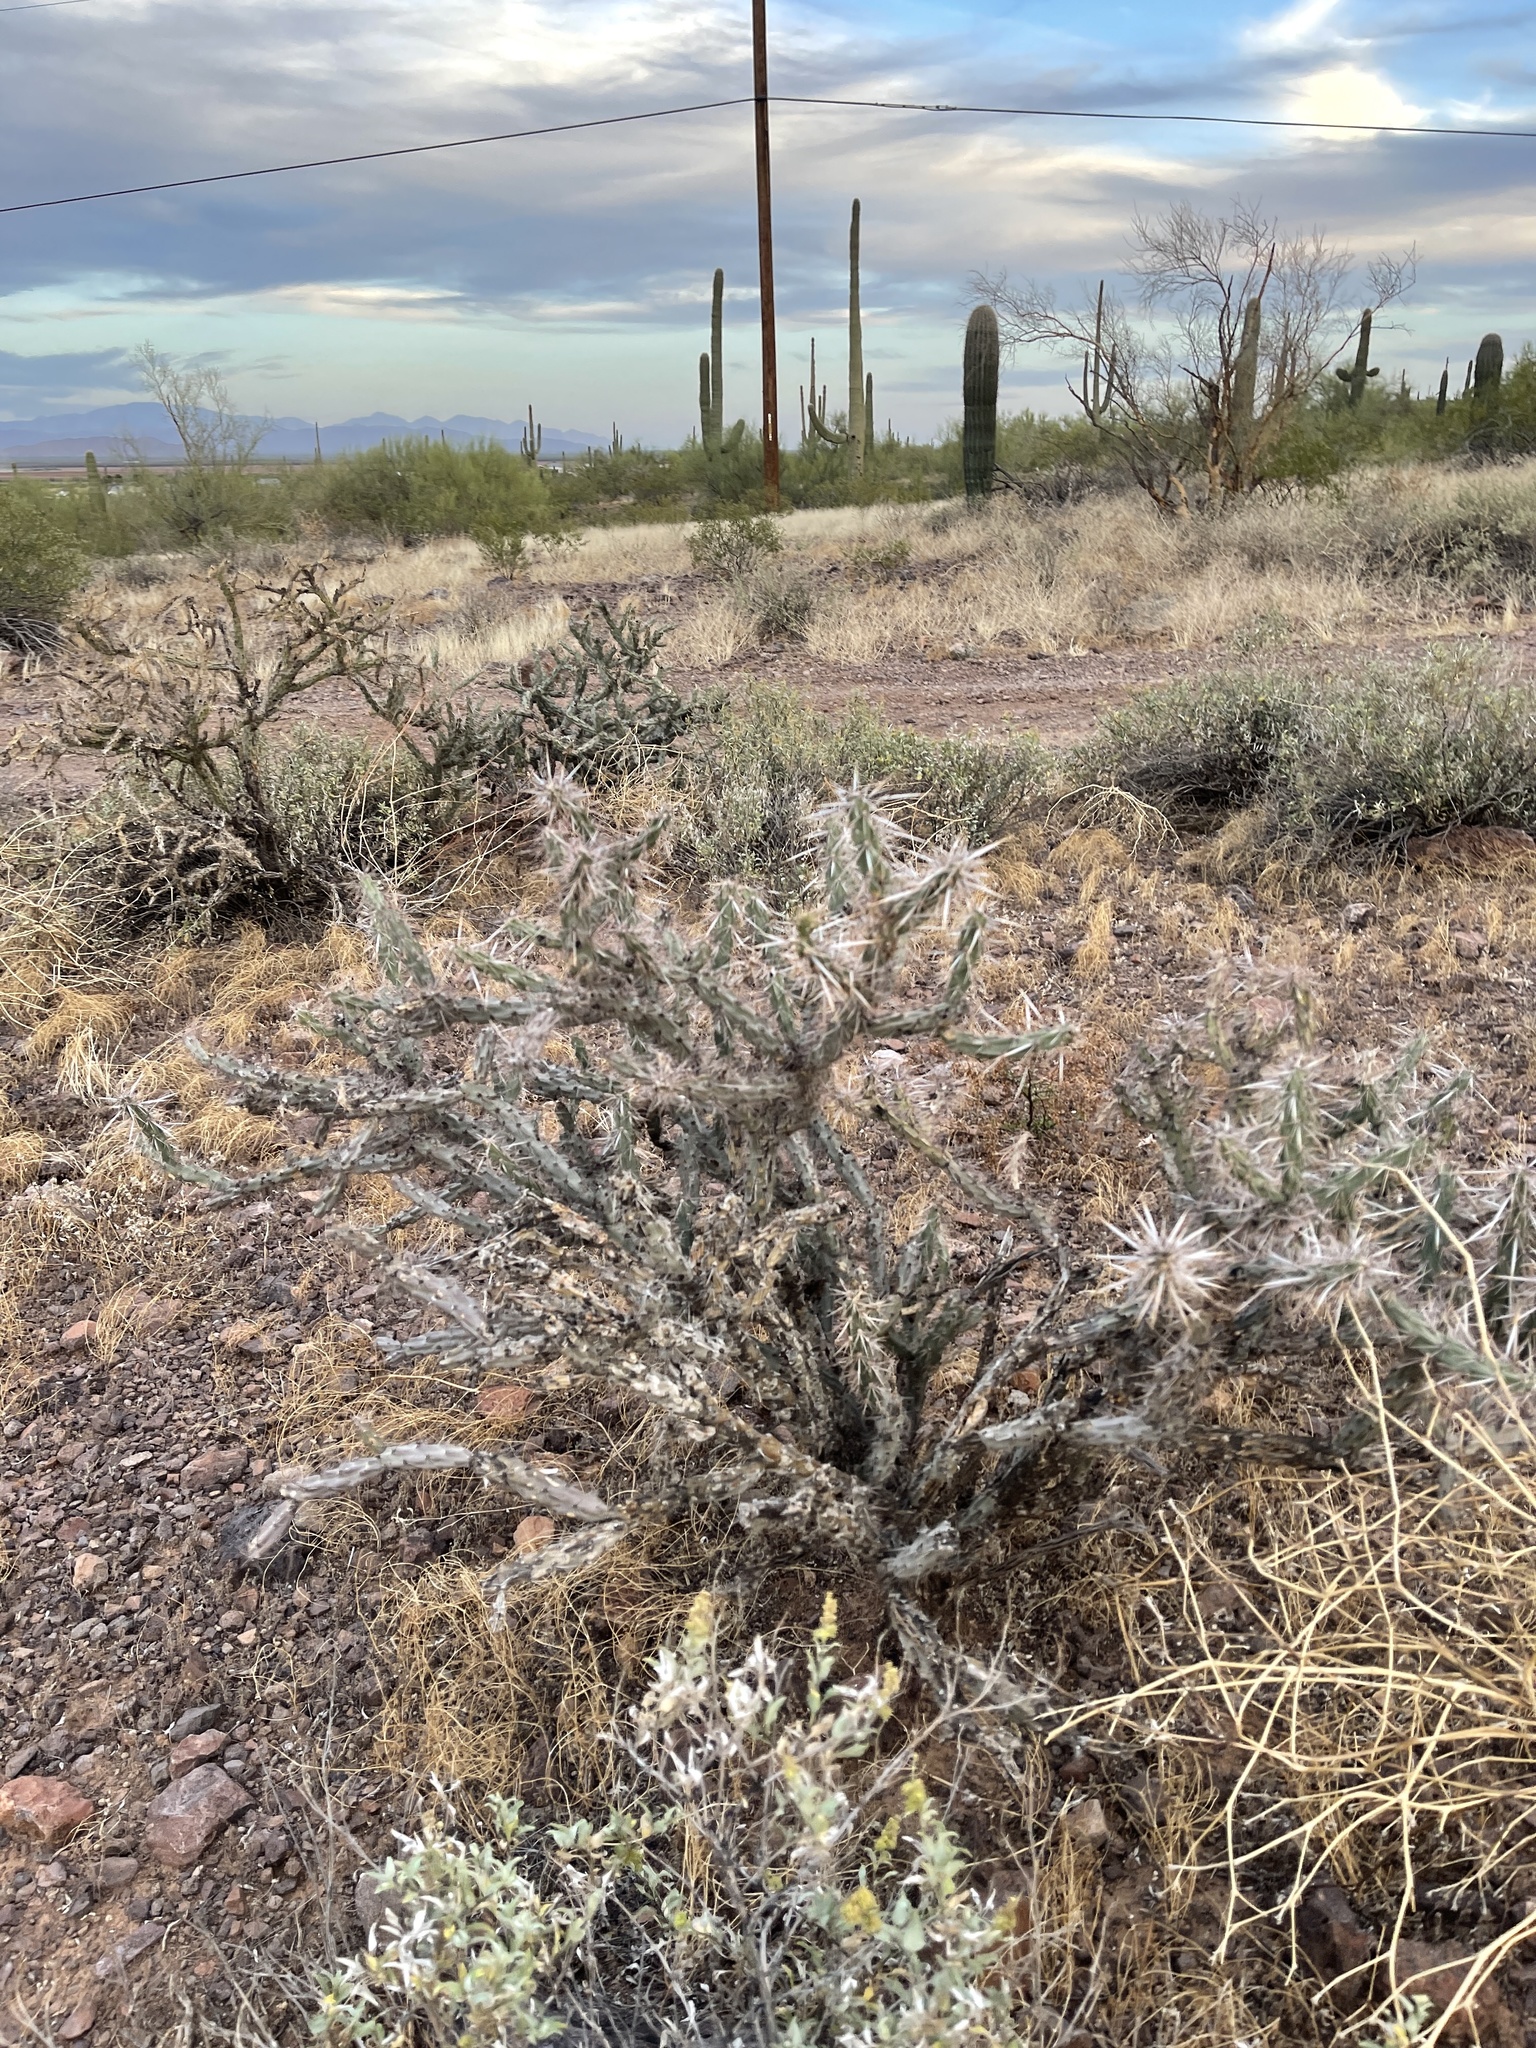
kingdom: Plantae
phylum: Tracheophyta
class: Magnoliopsida
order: Caryophyllales
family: Cactaceae
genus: Cylindropuntia
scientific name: Cylindropuntia thurberi
